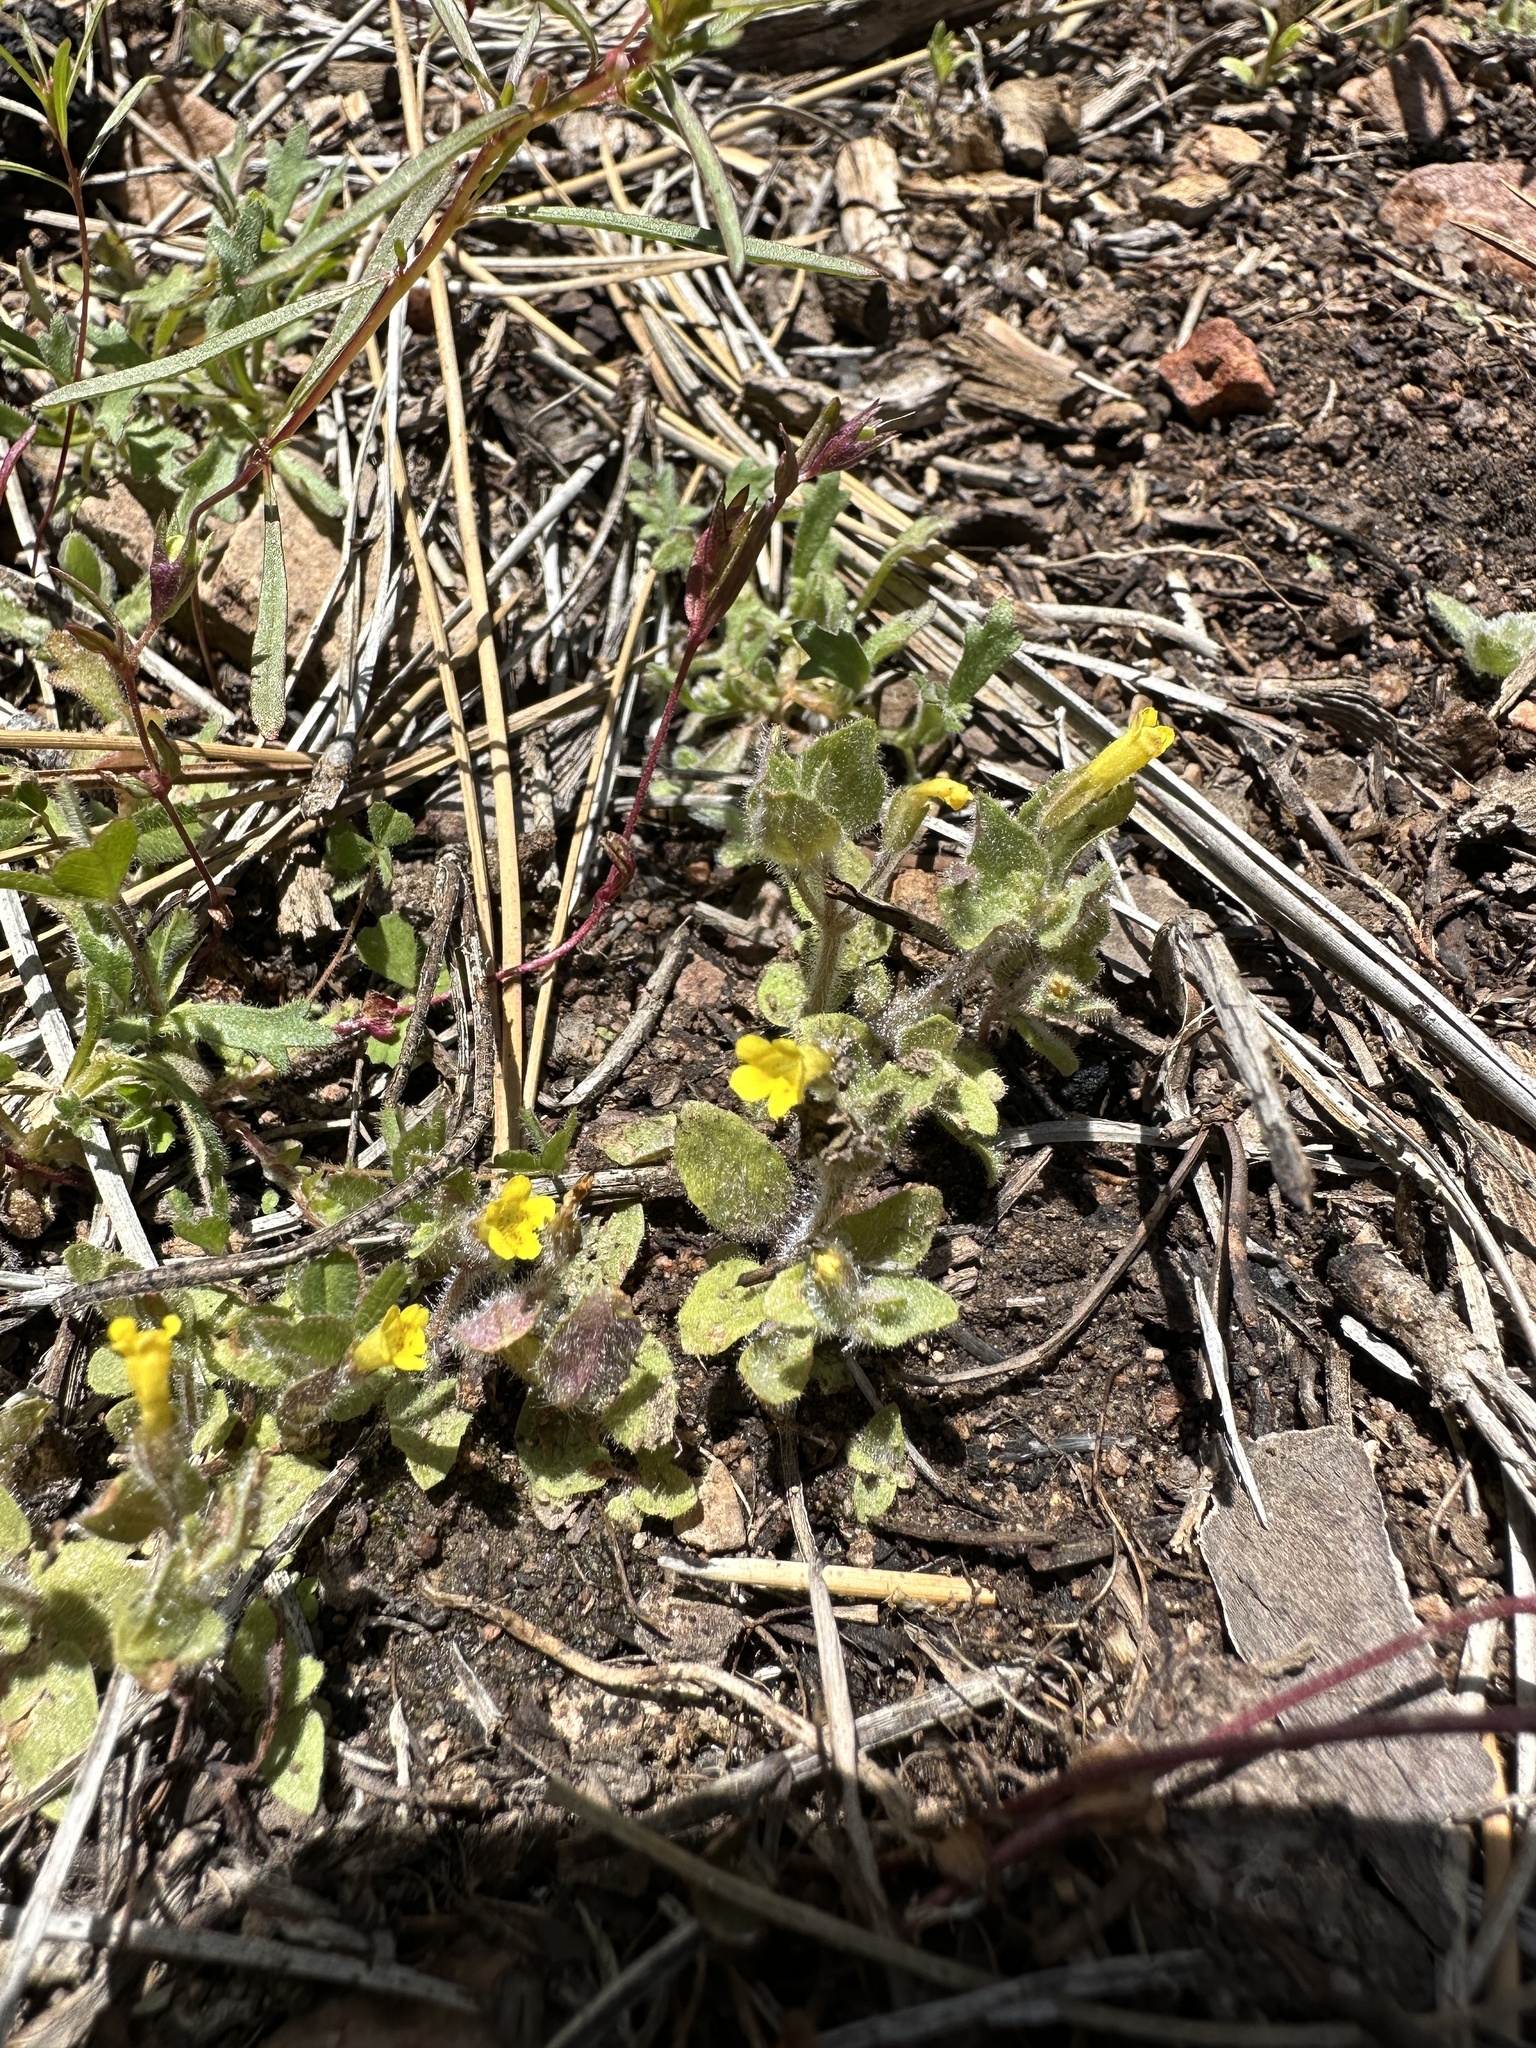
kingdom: Plantae
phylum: Tracheophyta
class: Magnoliopsida
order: Lamiales
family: Phrymaceae
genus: Erythranthe
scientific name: Erythranthe floribunda
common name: Floriferous monkeyflower
